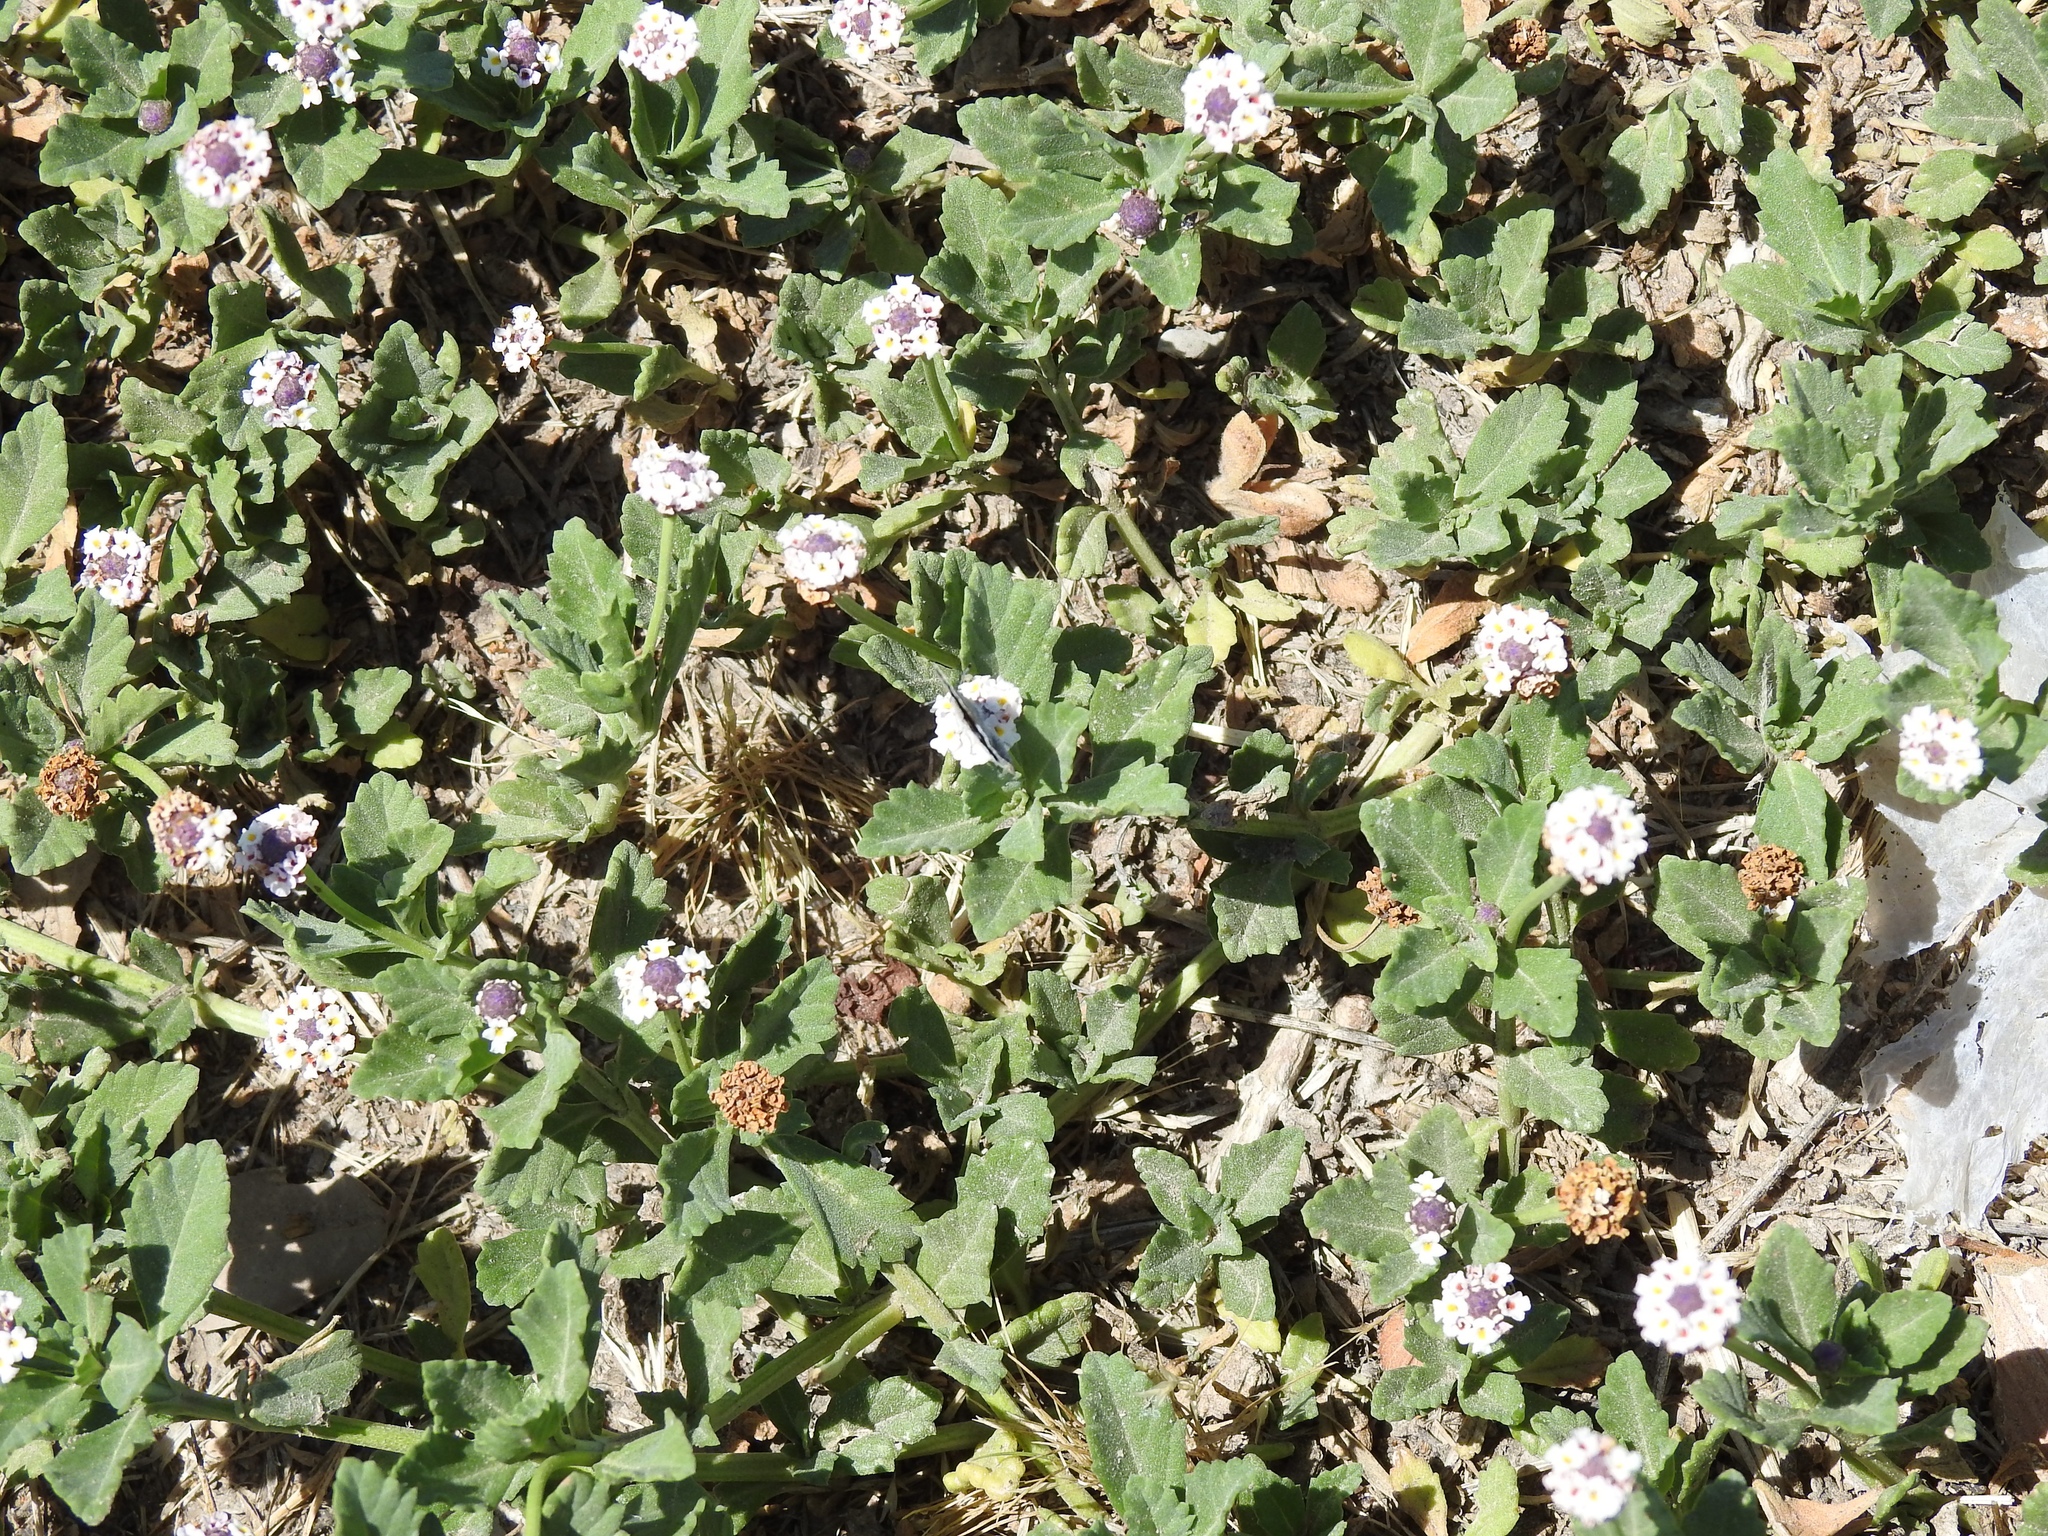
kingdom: Plantae
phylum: Tracheophyta
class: Magnoliopsida
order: Lamiales
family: Verbenaceae
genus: Phyla
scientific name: Phyla nodiflora
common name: Frogfruit
